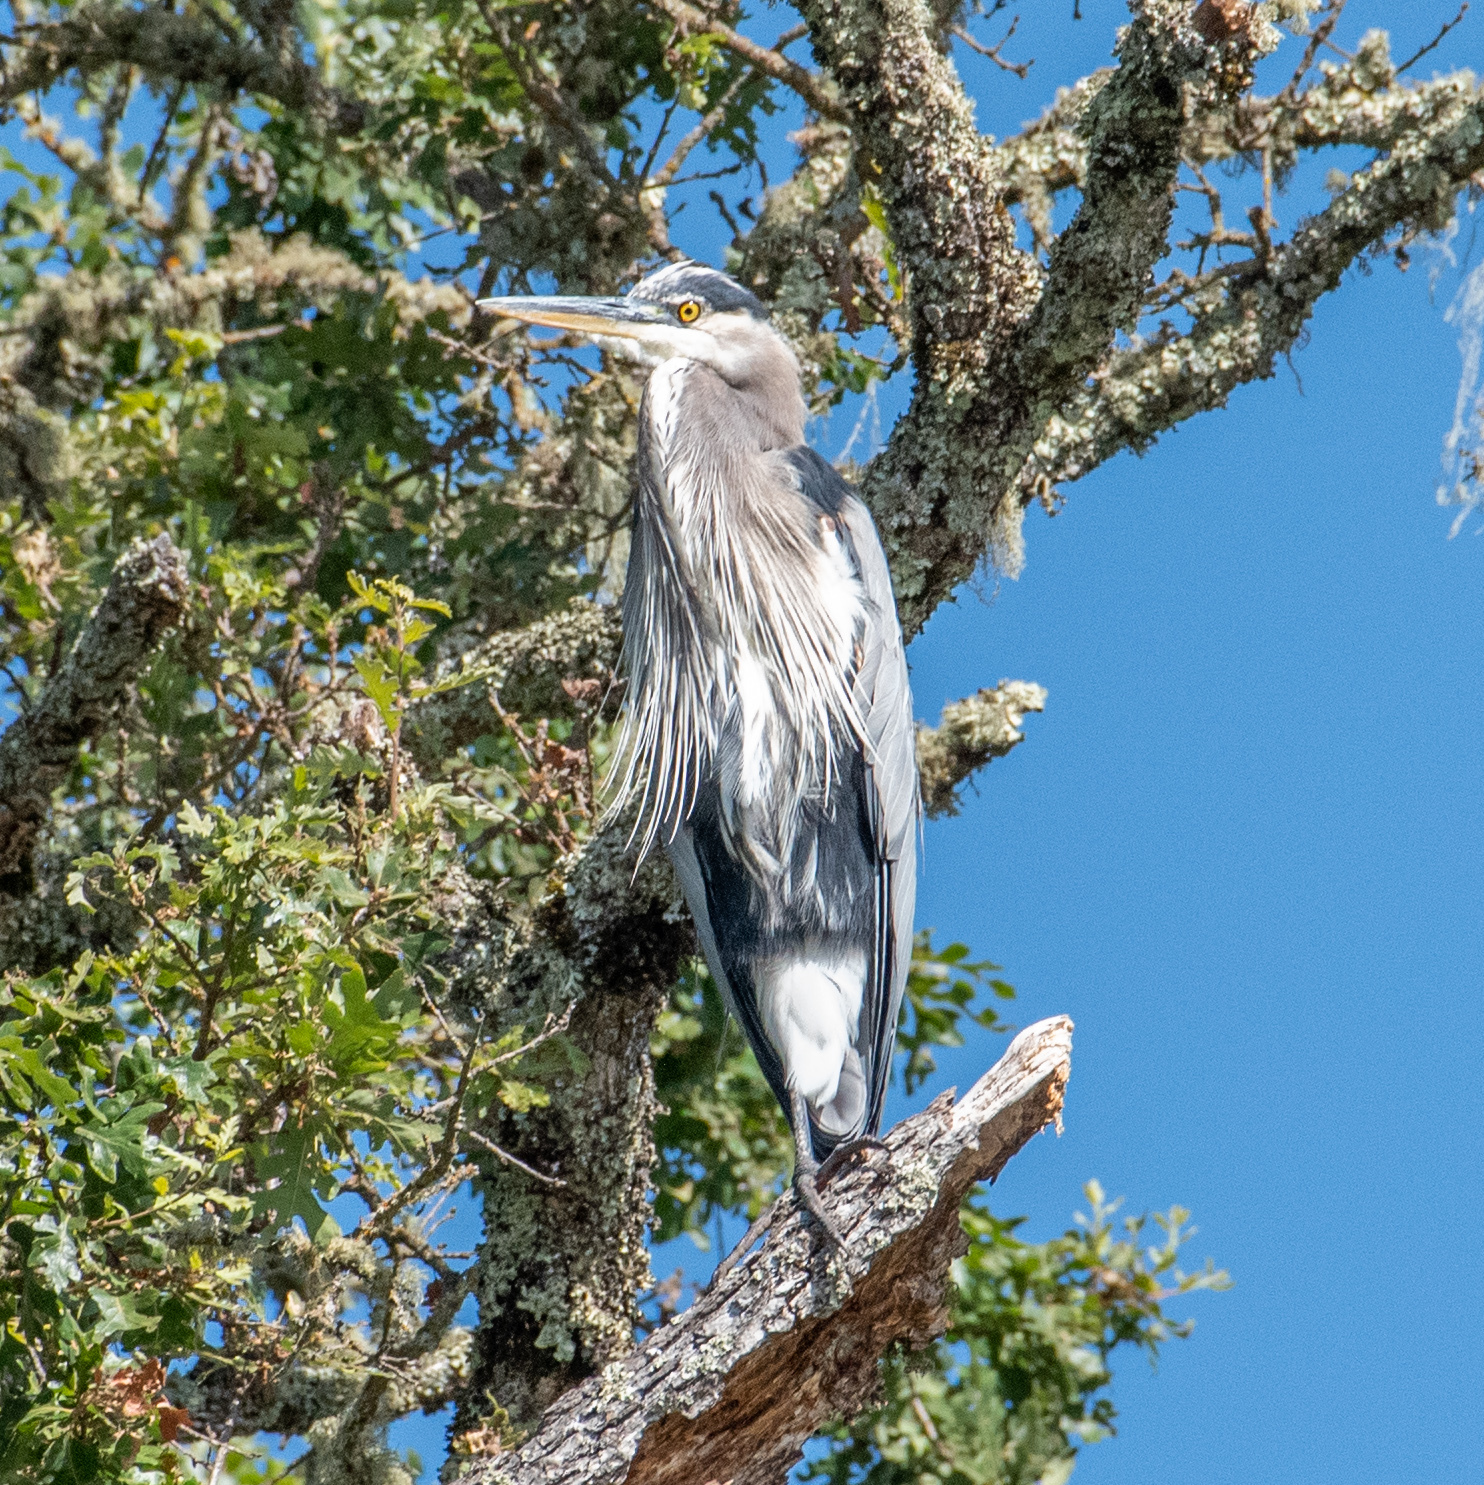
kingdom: Animalia
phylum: Chordata
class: Aves
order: Pelecaniformes
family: Ardeidae
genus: Ardea
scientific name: Ardea herodias
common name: Great blue heron
